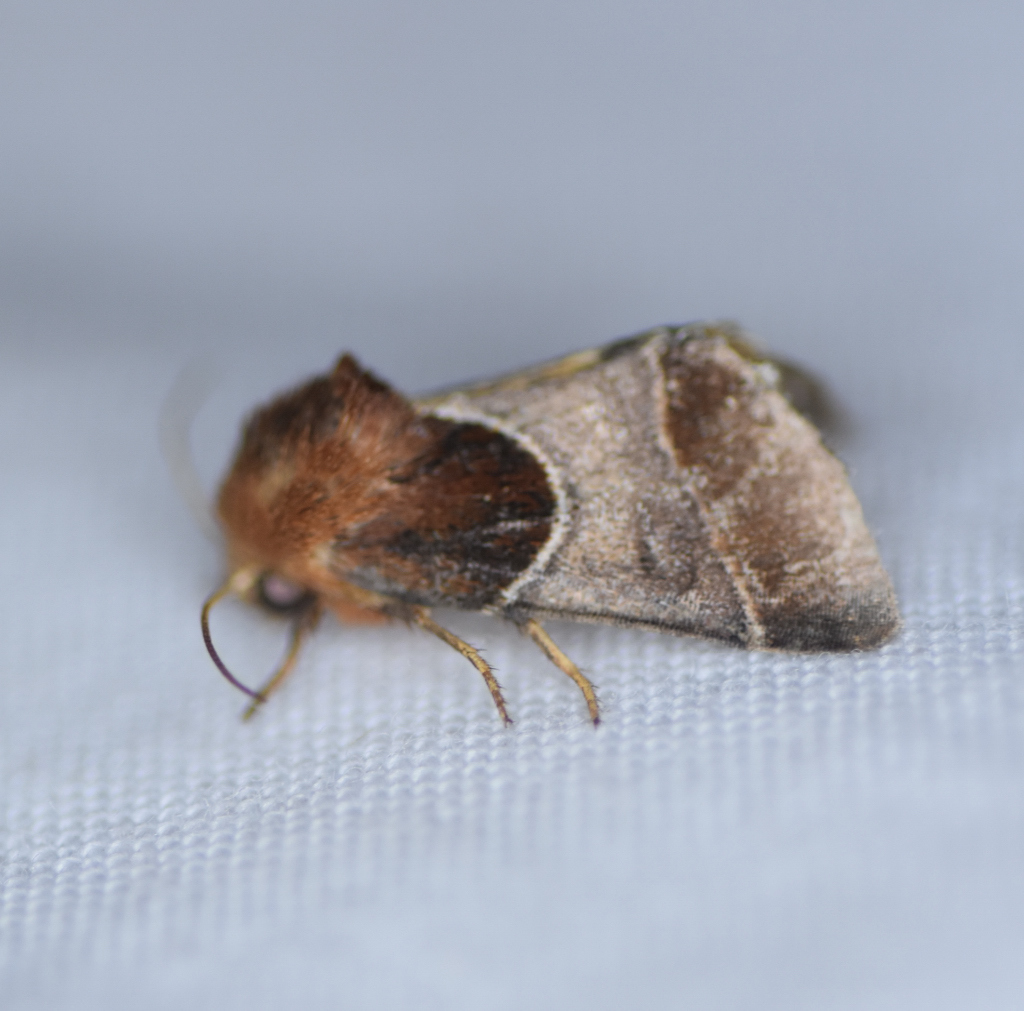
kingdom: Animalia
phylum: Arthropoda
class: Insecta
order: Lepidoptera
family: Noctuidae
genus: Schinia
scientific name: Schinia arcigera
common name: Arcigera flower moth
